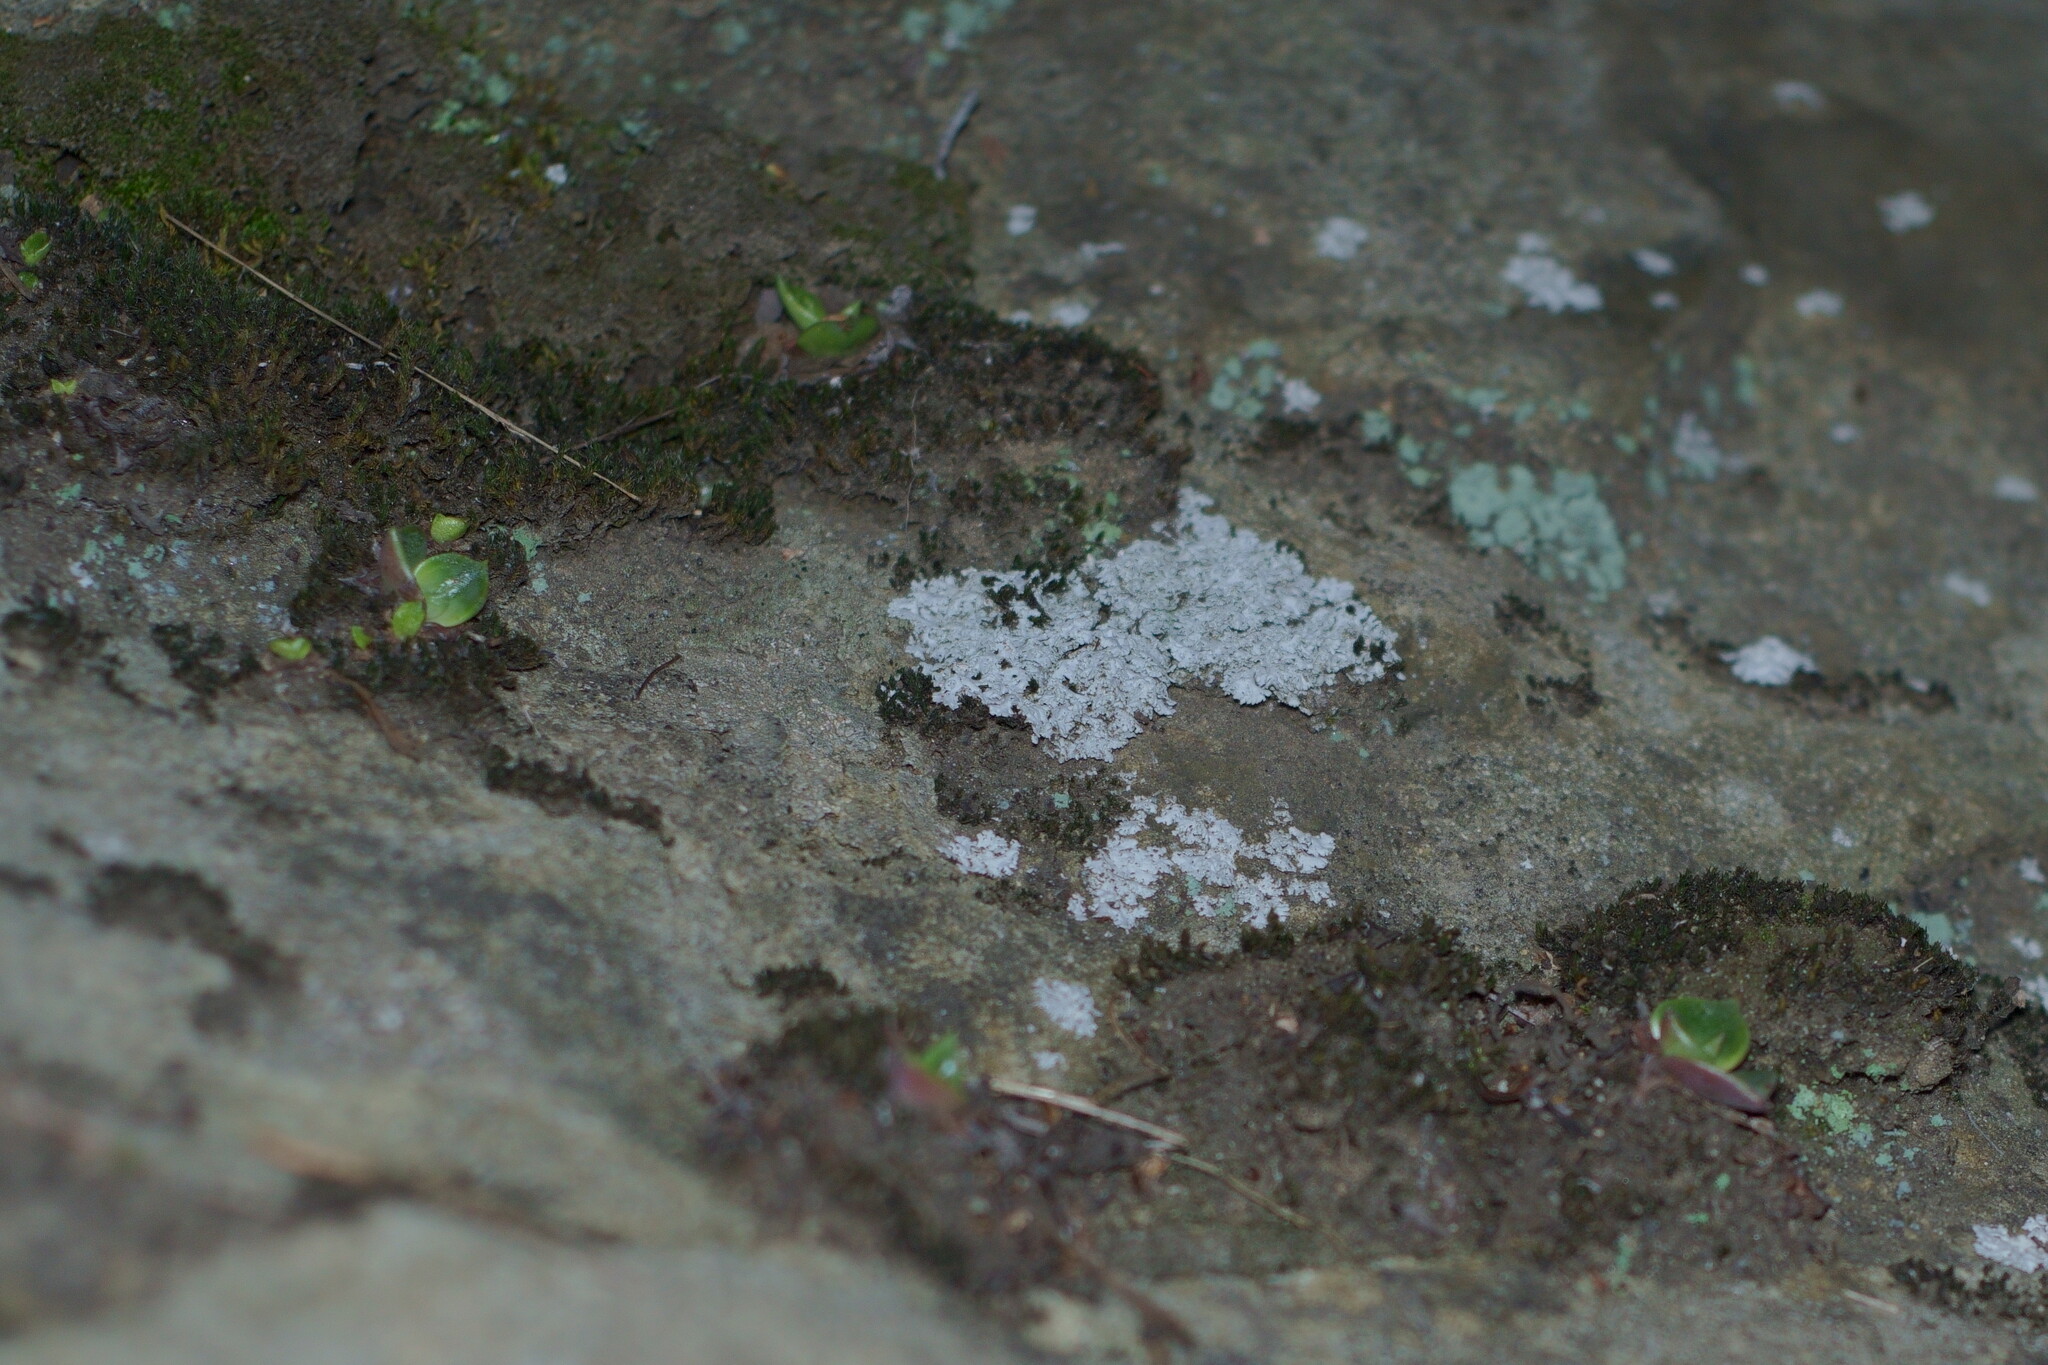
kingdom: Plantae
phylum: Tracheophyta
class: Magnoliopsida
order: Saxifragales
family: Crassulaceae
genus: Dudleya
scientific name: Dudleya cymosa
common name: Canyon dudleya
